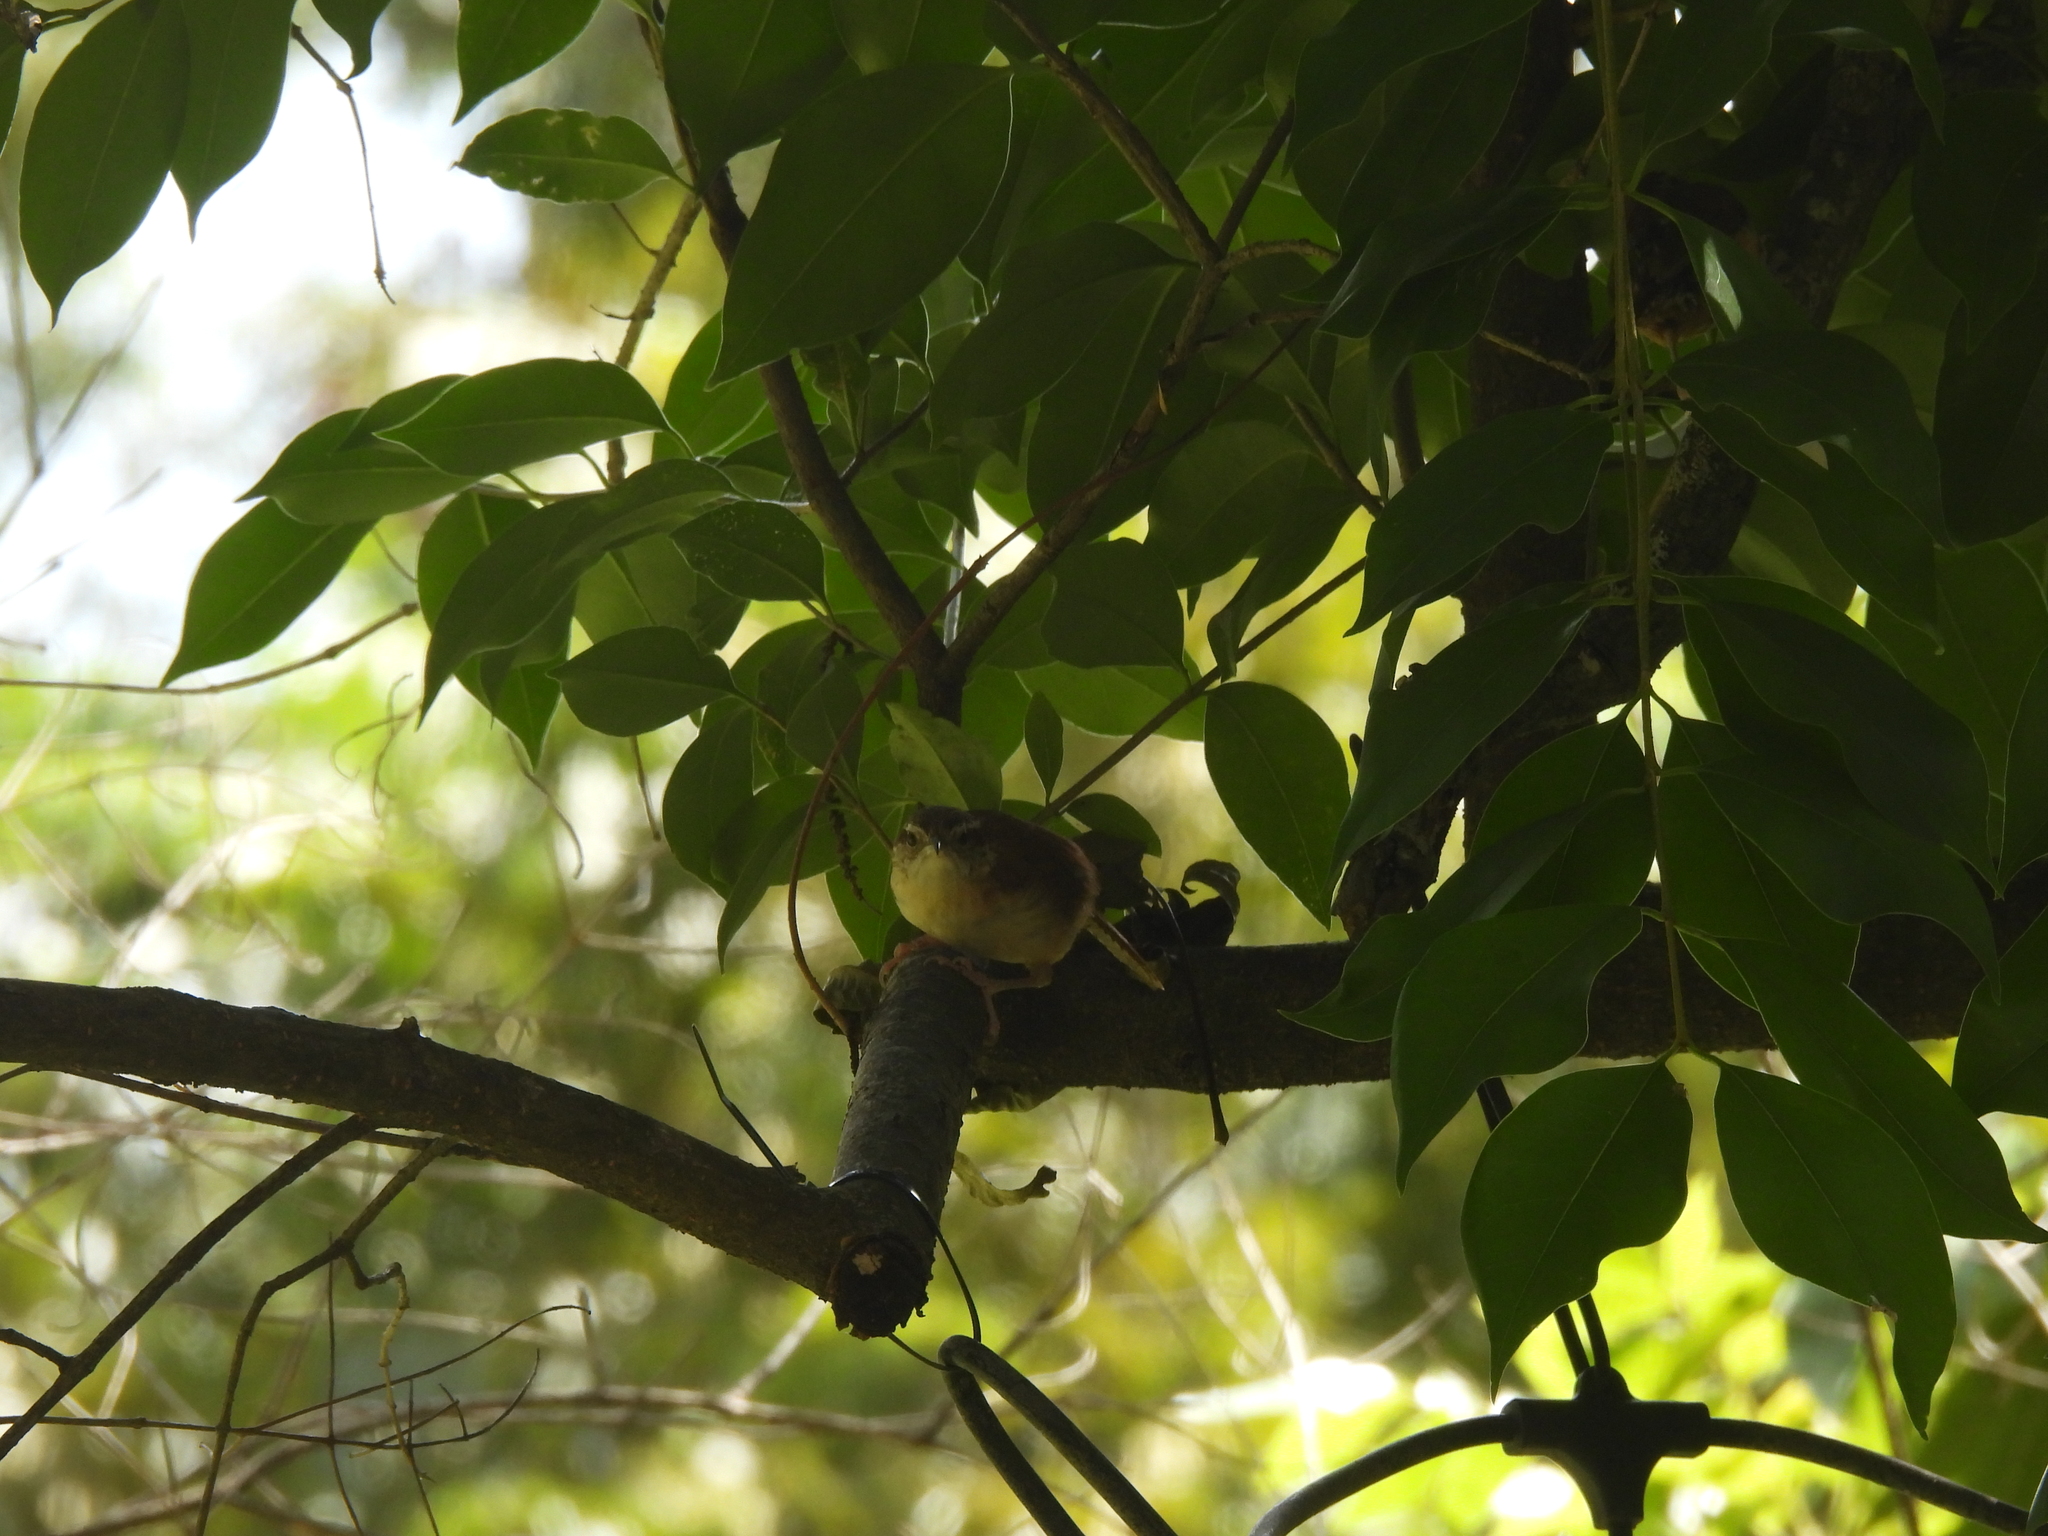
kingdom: Animalia
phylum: Chordata
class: Aves
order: Passeriformes
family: Troglodytidae
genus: Thryothorus
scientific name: Thryothorus ludovicianus
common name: Carolina wren
